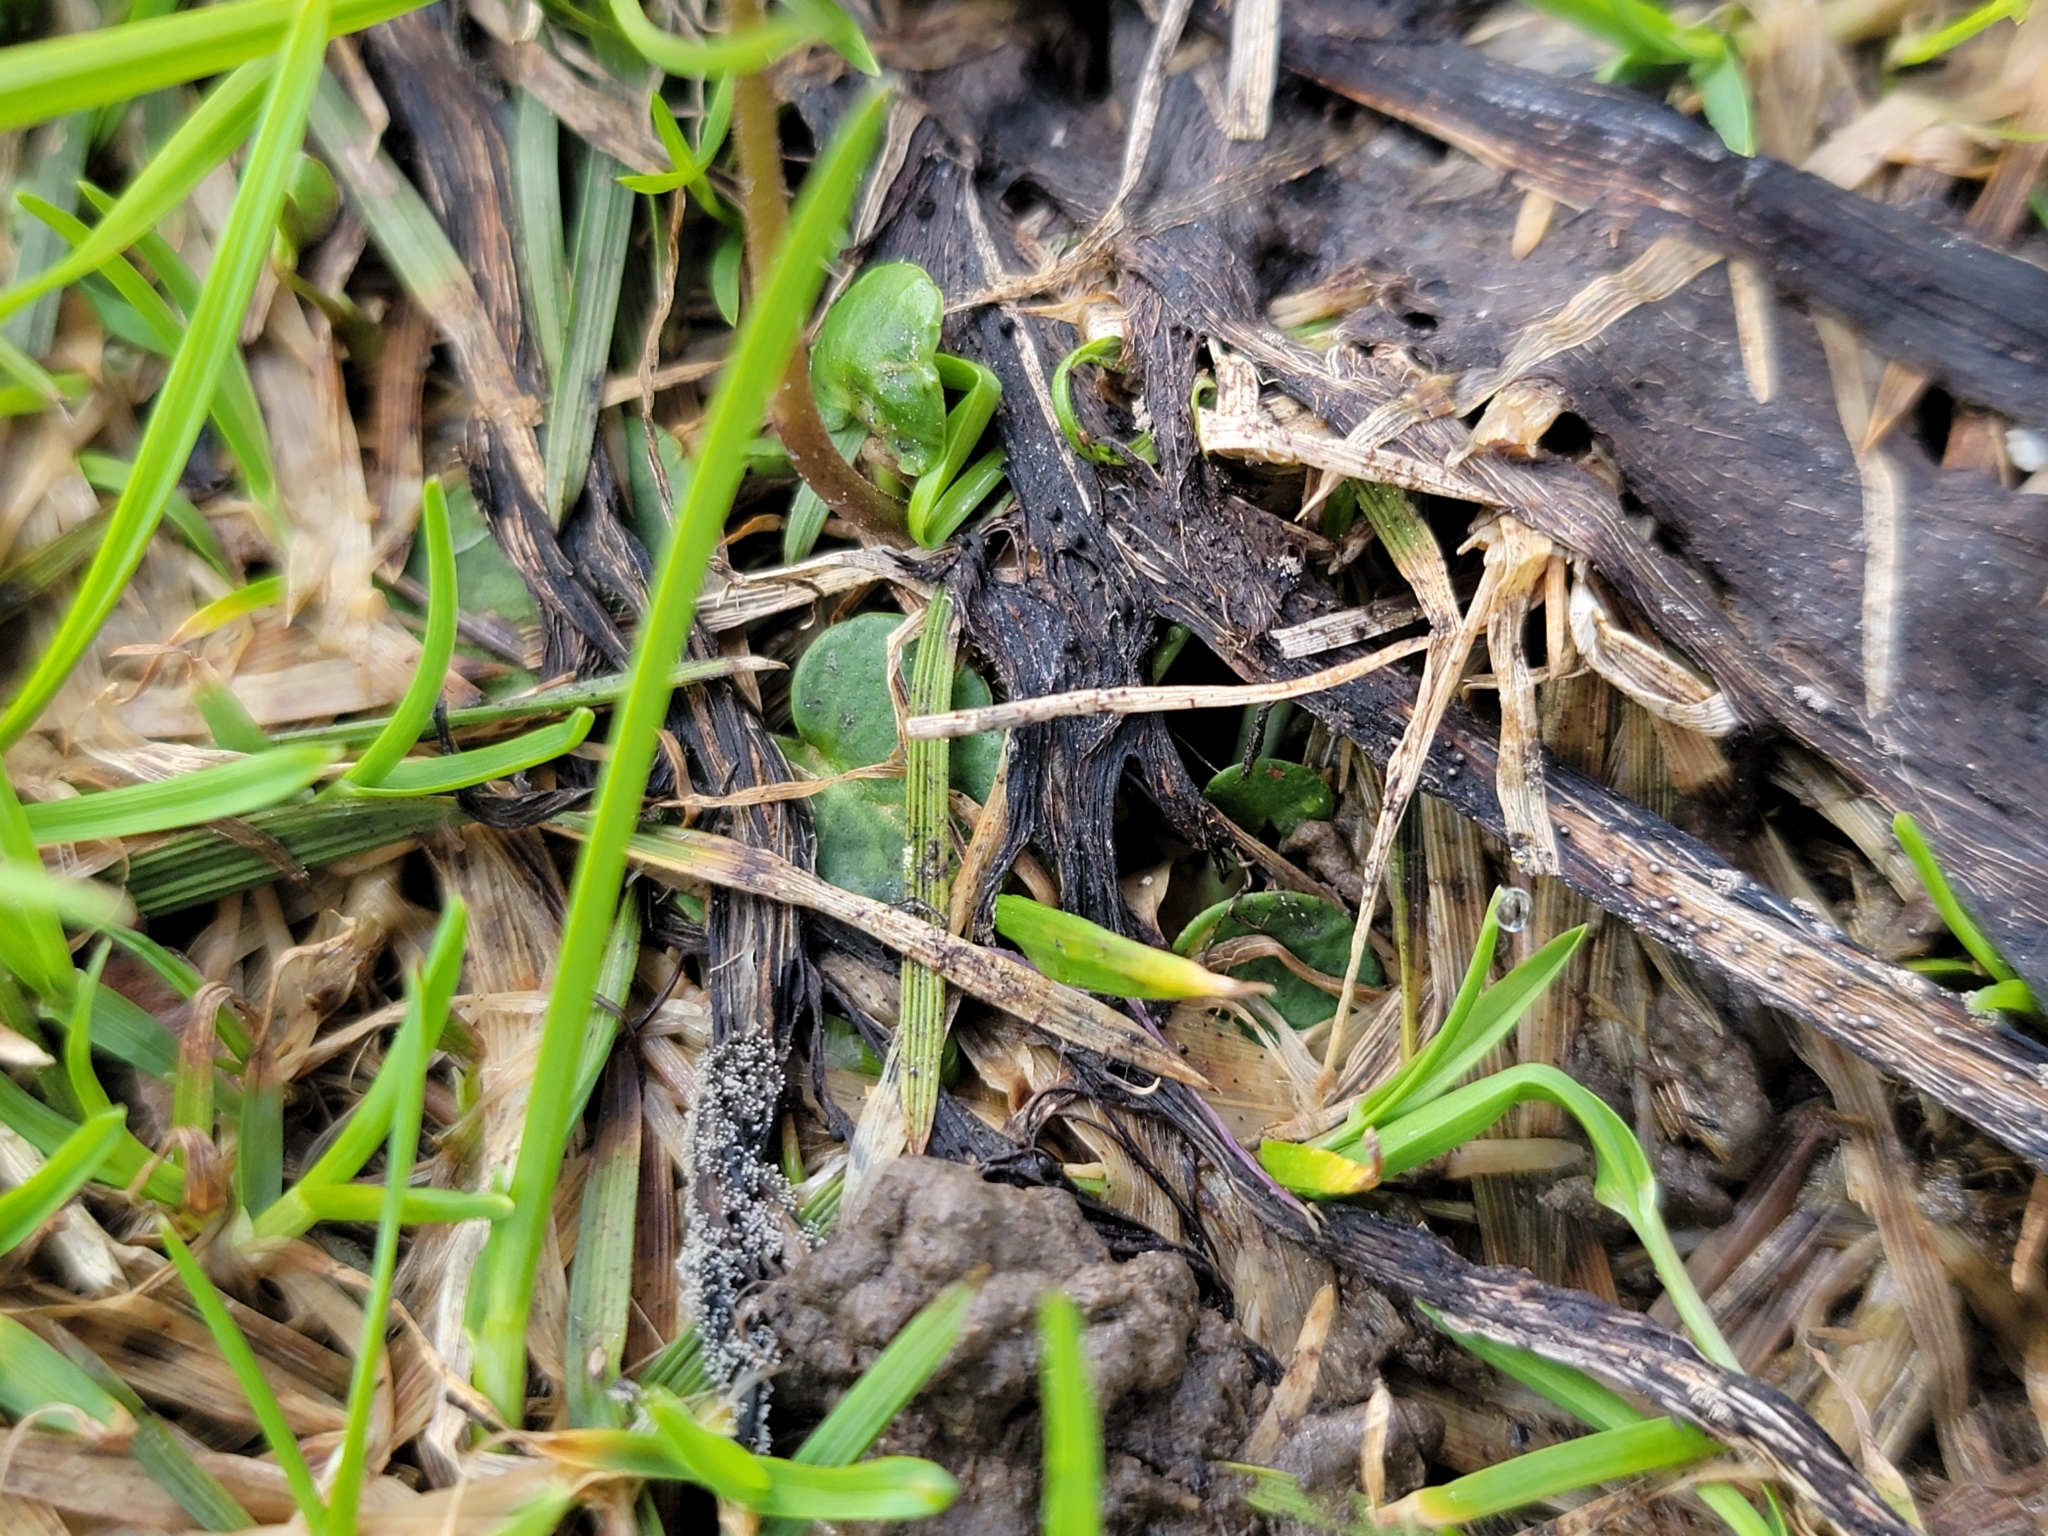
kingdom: Plantae
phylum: Tracheophyta
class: Magnoliopsida
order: Ericales
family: Primulaceae
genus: Soldanella
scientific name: Soldanella alpina
